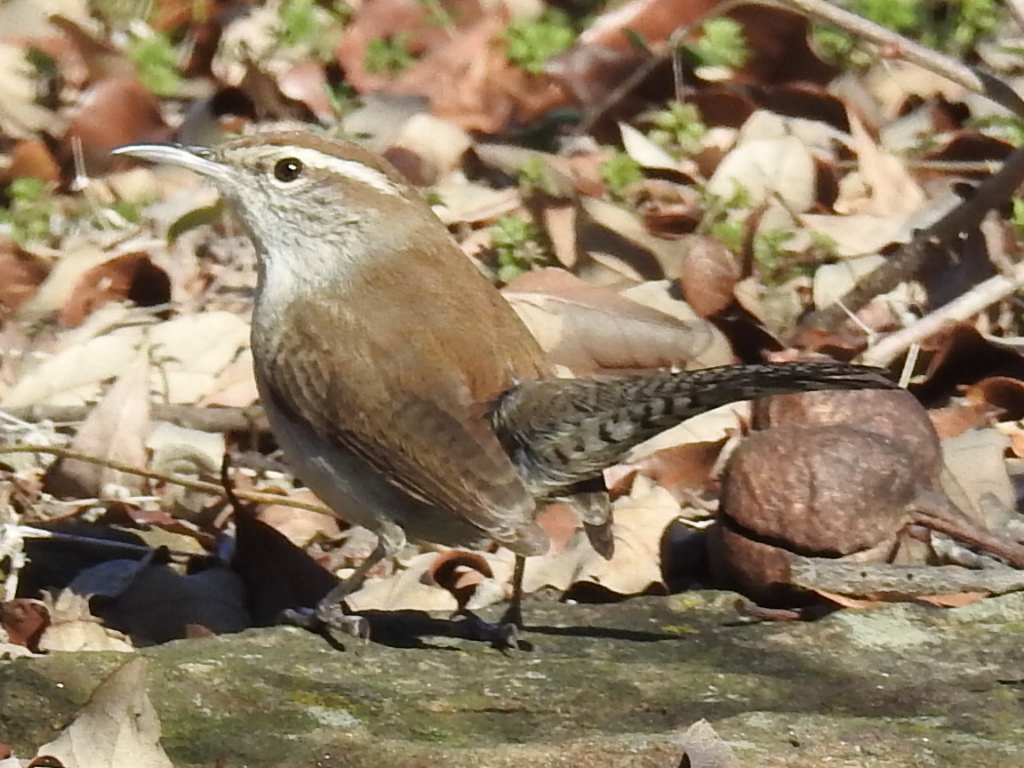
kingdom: Animalia
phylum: Chordata
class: Aves
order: Passeriformes
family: Troglodytidae
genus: Thryomanes
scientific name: Thryomanes bewickii
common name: Bewick's wren
